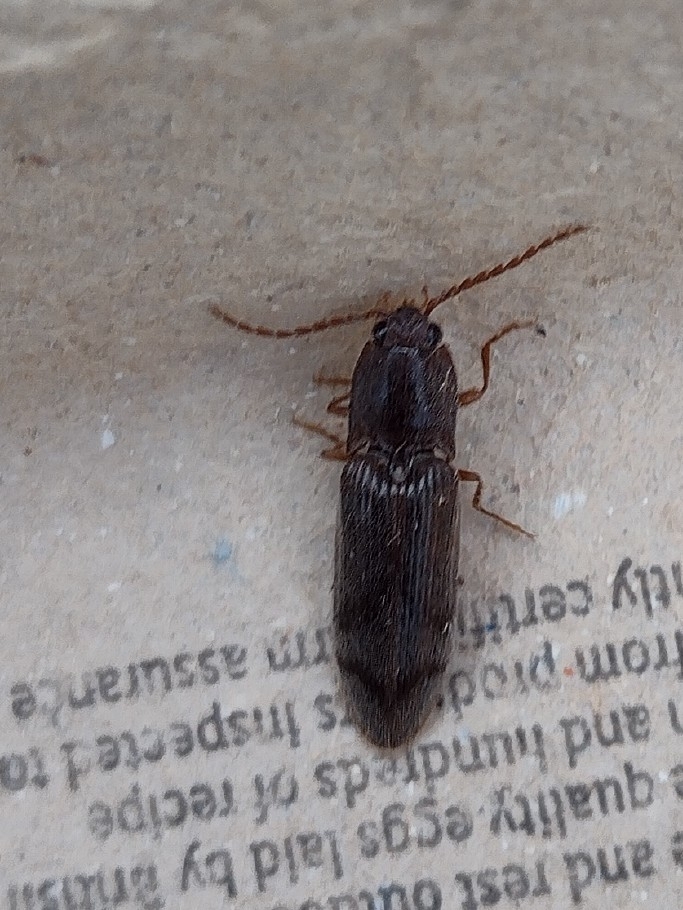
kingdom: Animalia
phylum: Arthropoda
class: Insecta
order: Coleoptera
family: Elateridae
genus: Stenagostus
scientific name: Stenagostus rhombeus
